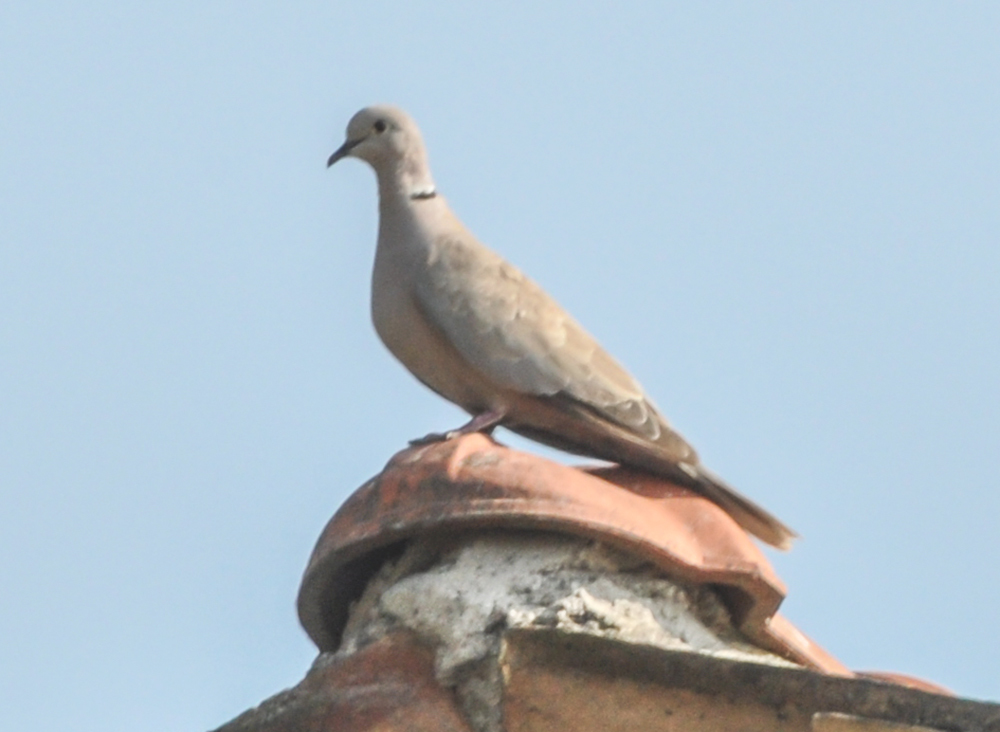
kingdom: Animalia
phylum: Chordata
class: Aves
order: Columbiformes
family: Columbidae
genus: Streptopelia
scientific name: Streptopelia decaocto
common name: Eurasian collared dove
